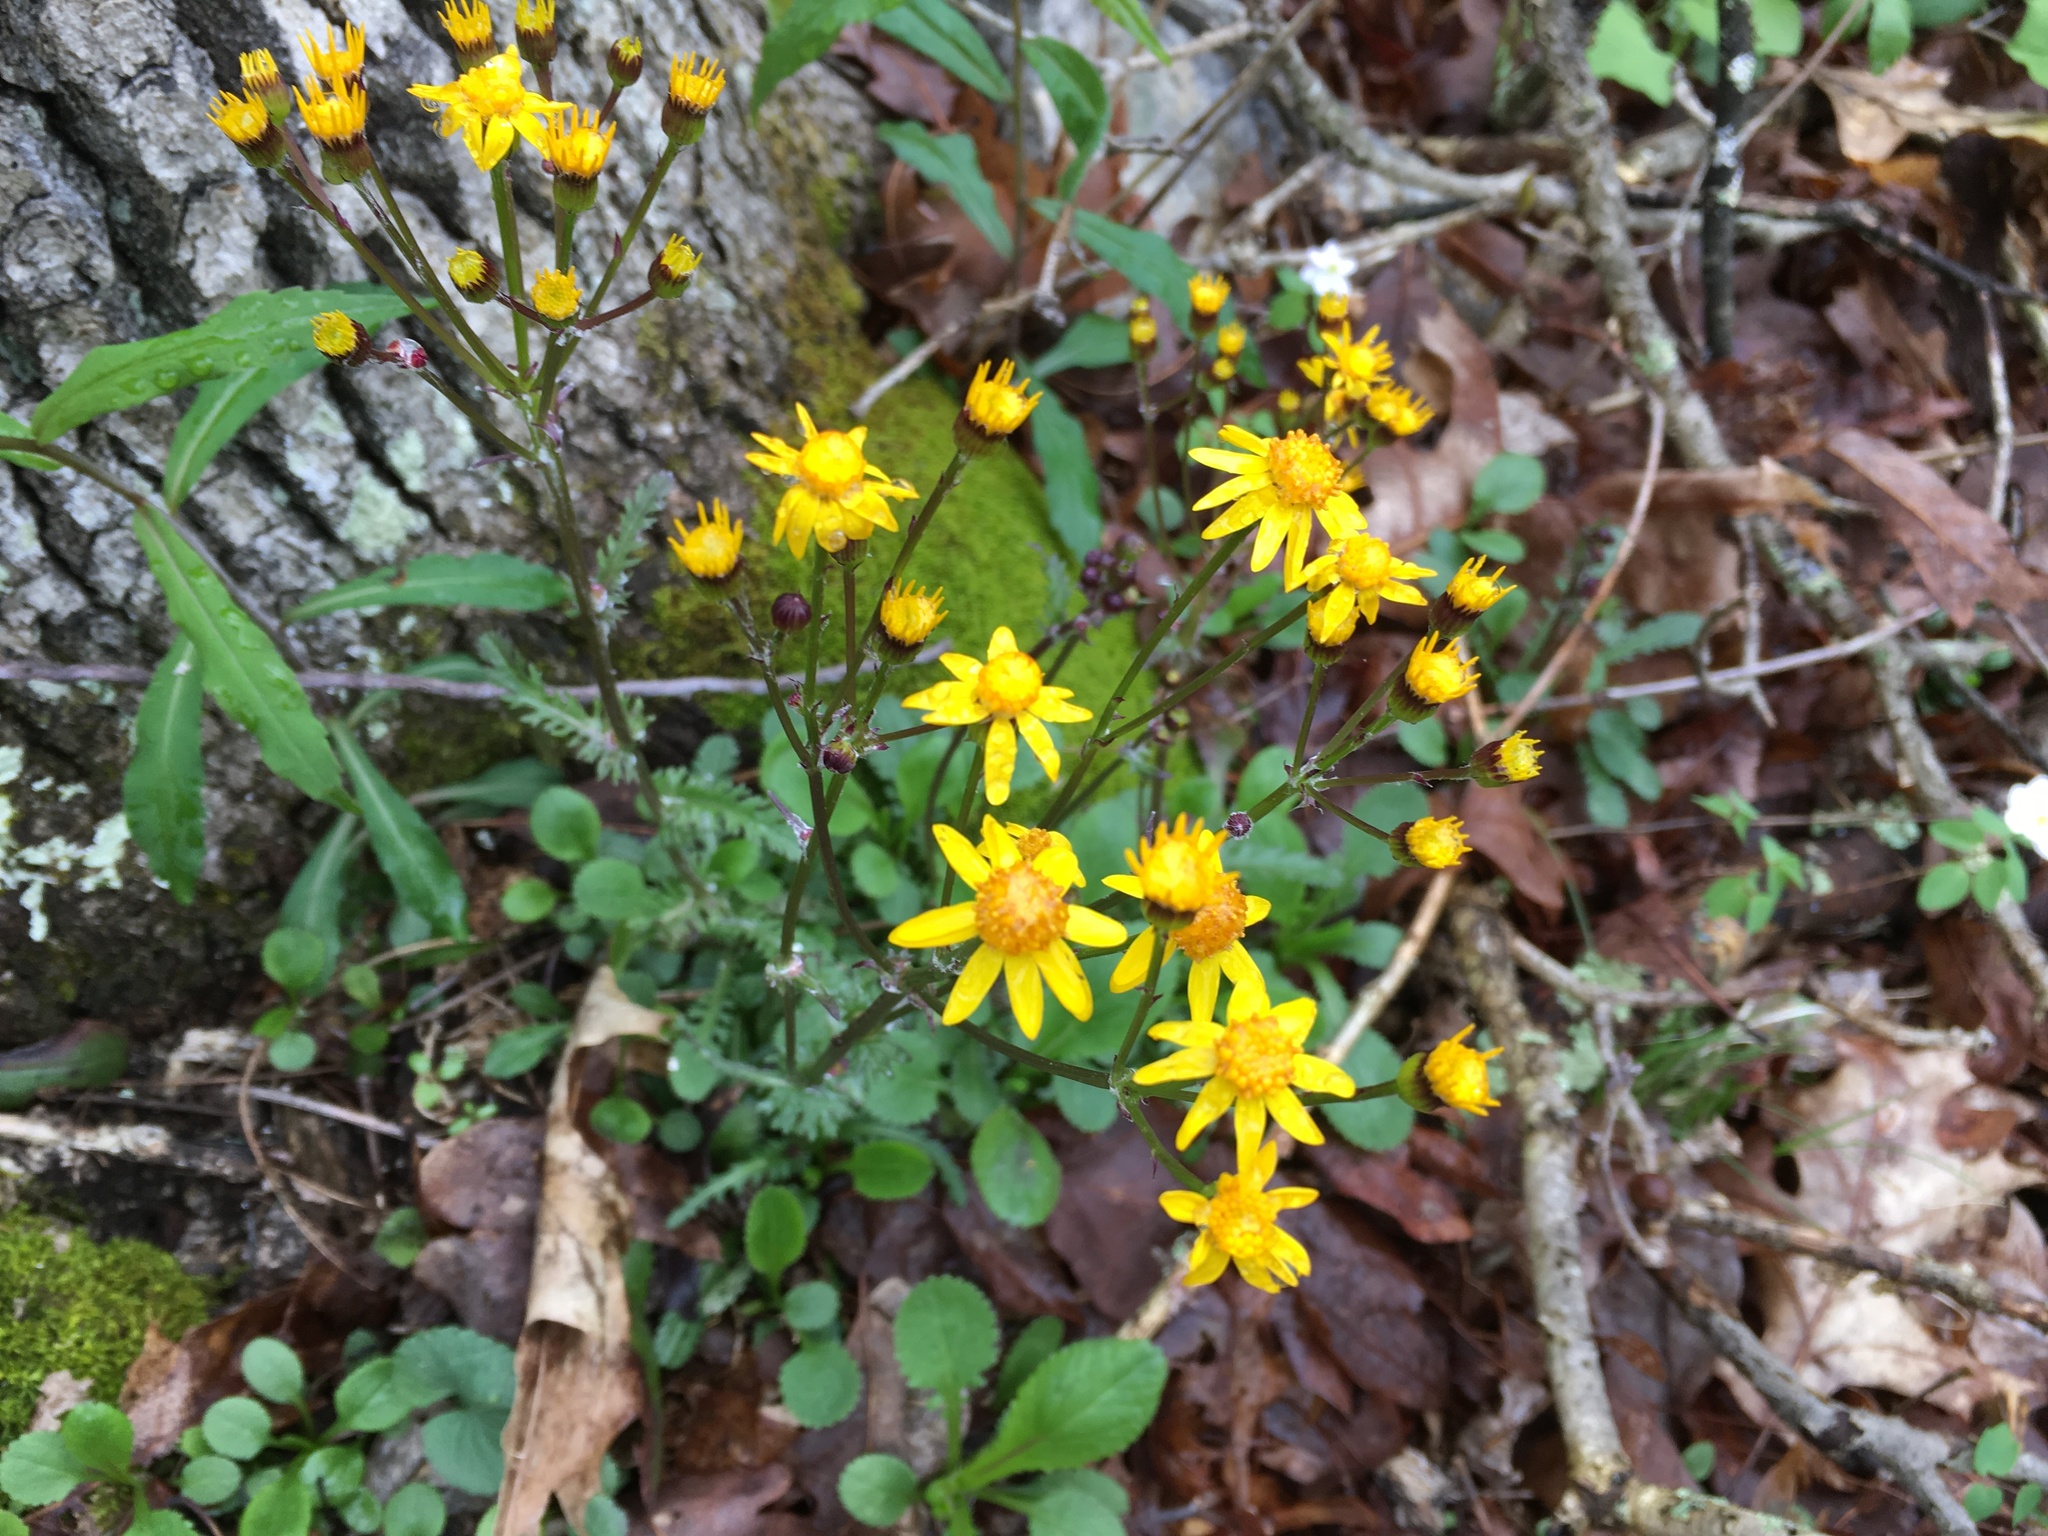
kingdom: Plantae
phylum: Tracheophyta
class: Magnoliopsida
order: Asterales
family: Asteraceae
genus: Packera
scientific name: Packera obovata
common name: Round-leaf ragwort
